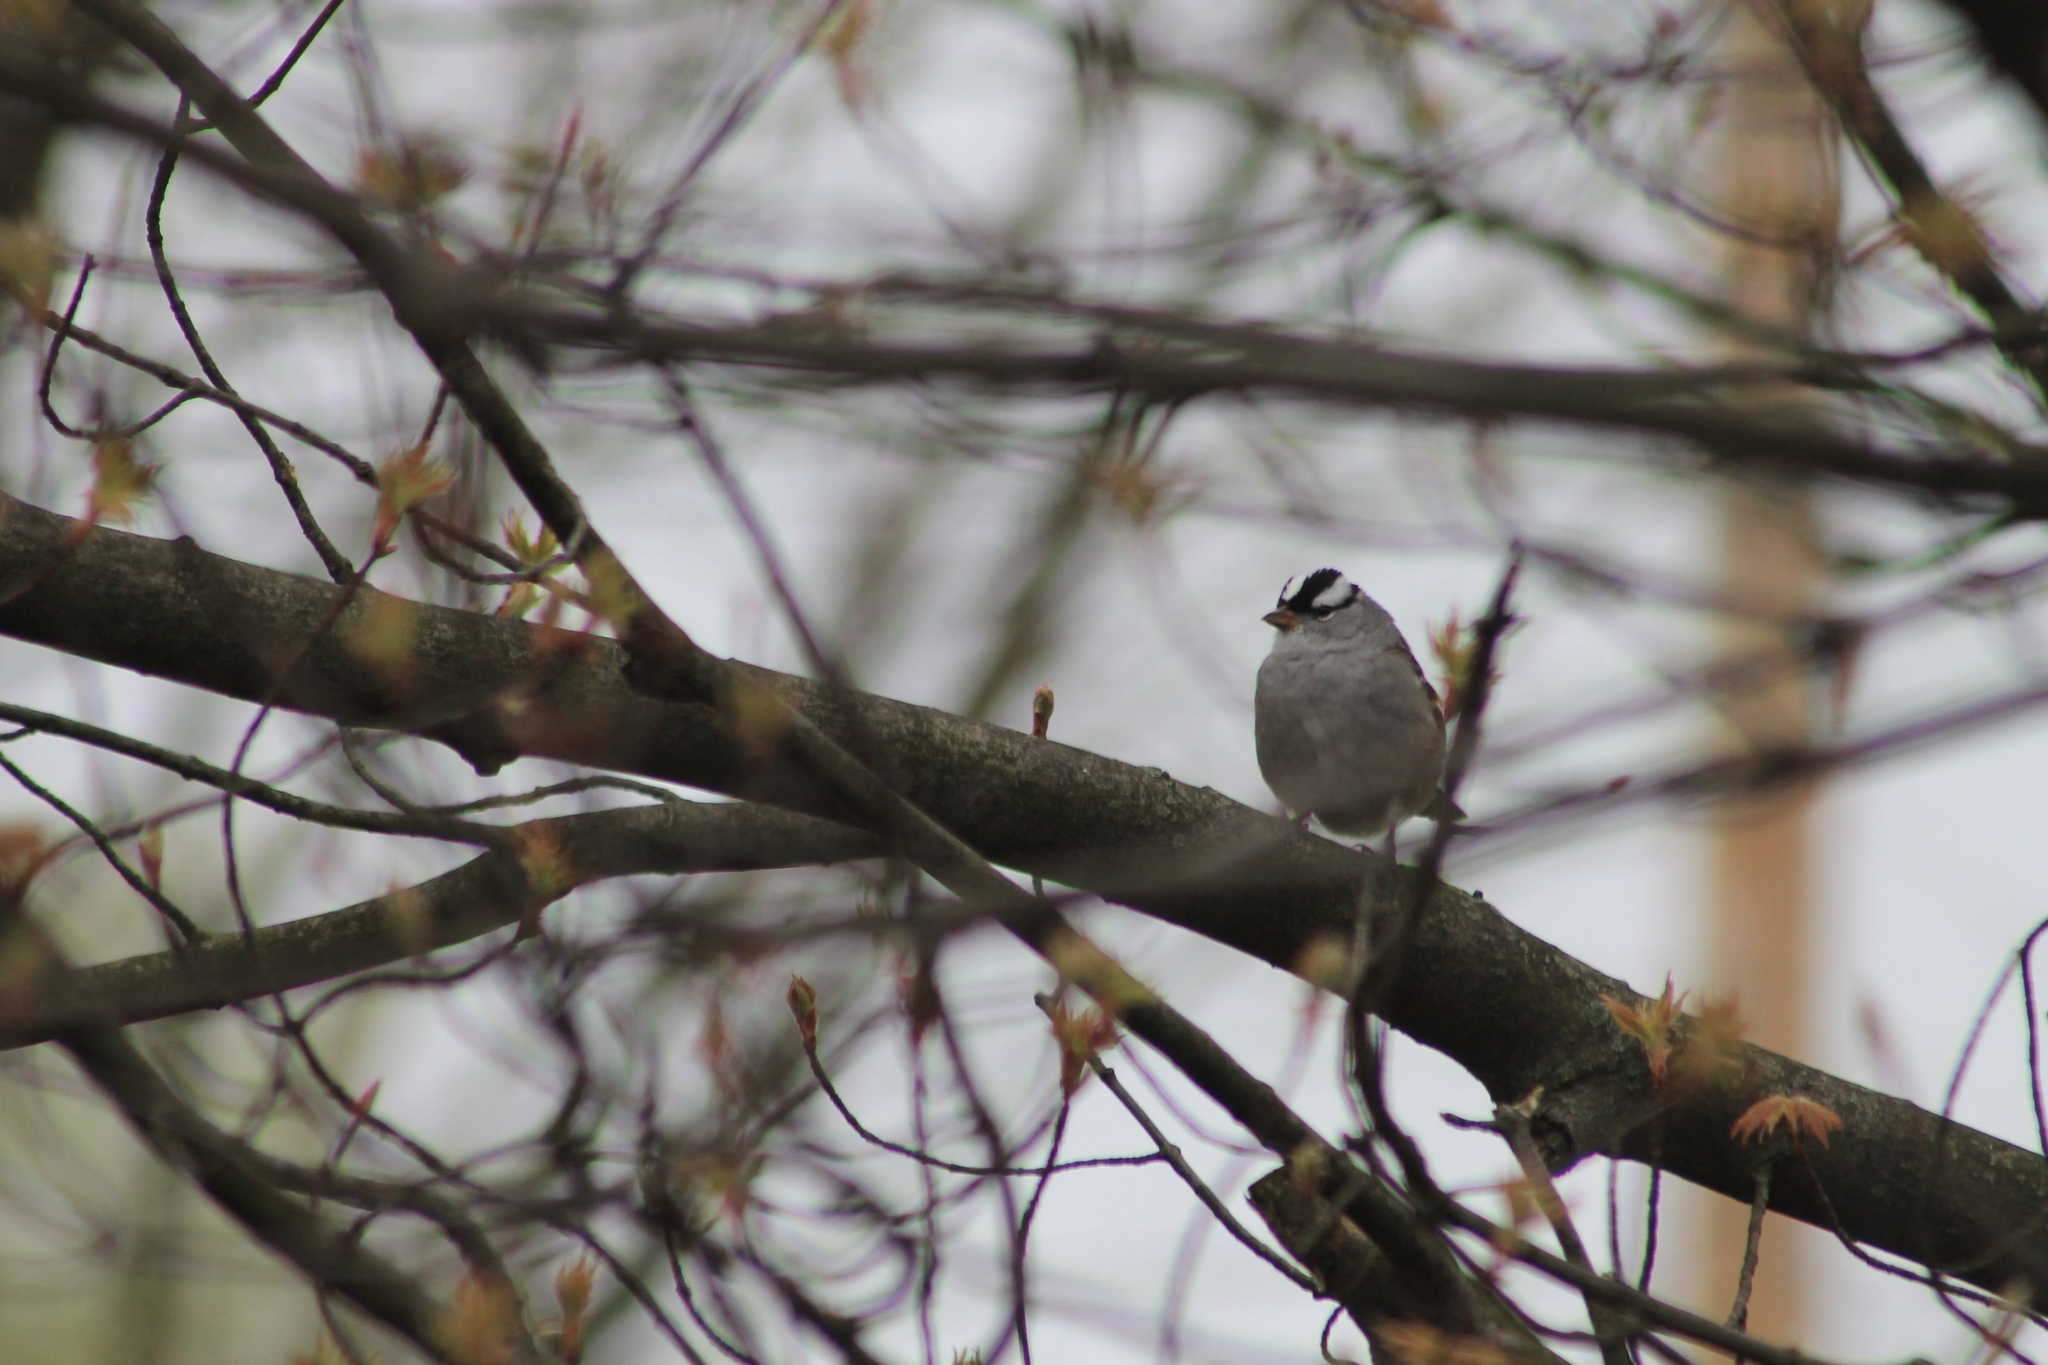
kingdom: Animalia
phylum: Chordata
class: Aves
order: Passeriformes
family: Passerellidae
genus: Zonotrichia
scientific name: Zonotrichia leucophrys
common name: White-crowned sparrow
